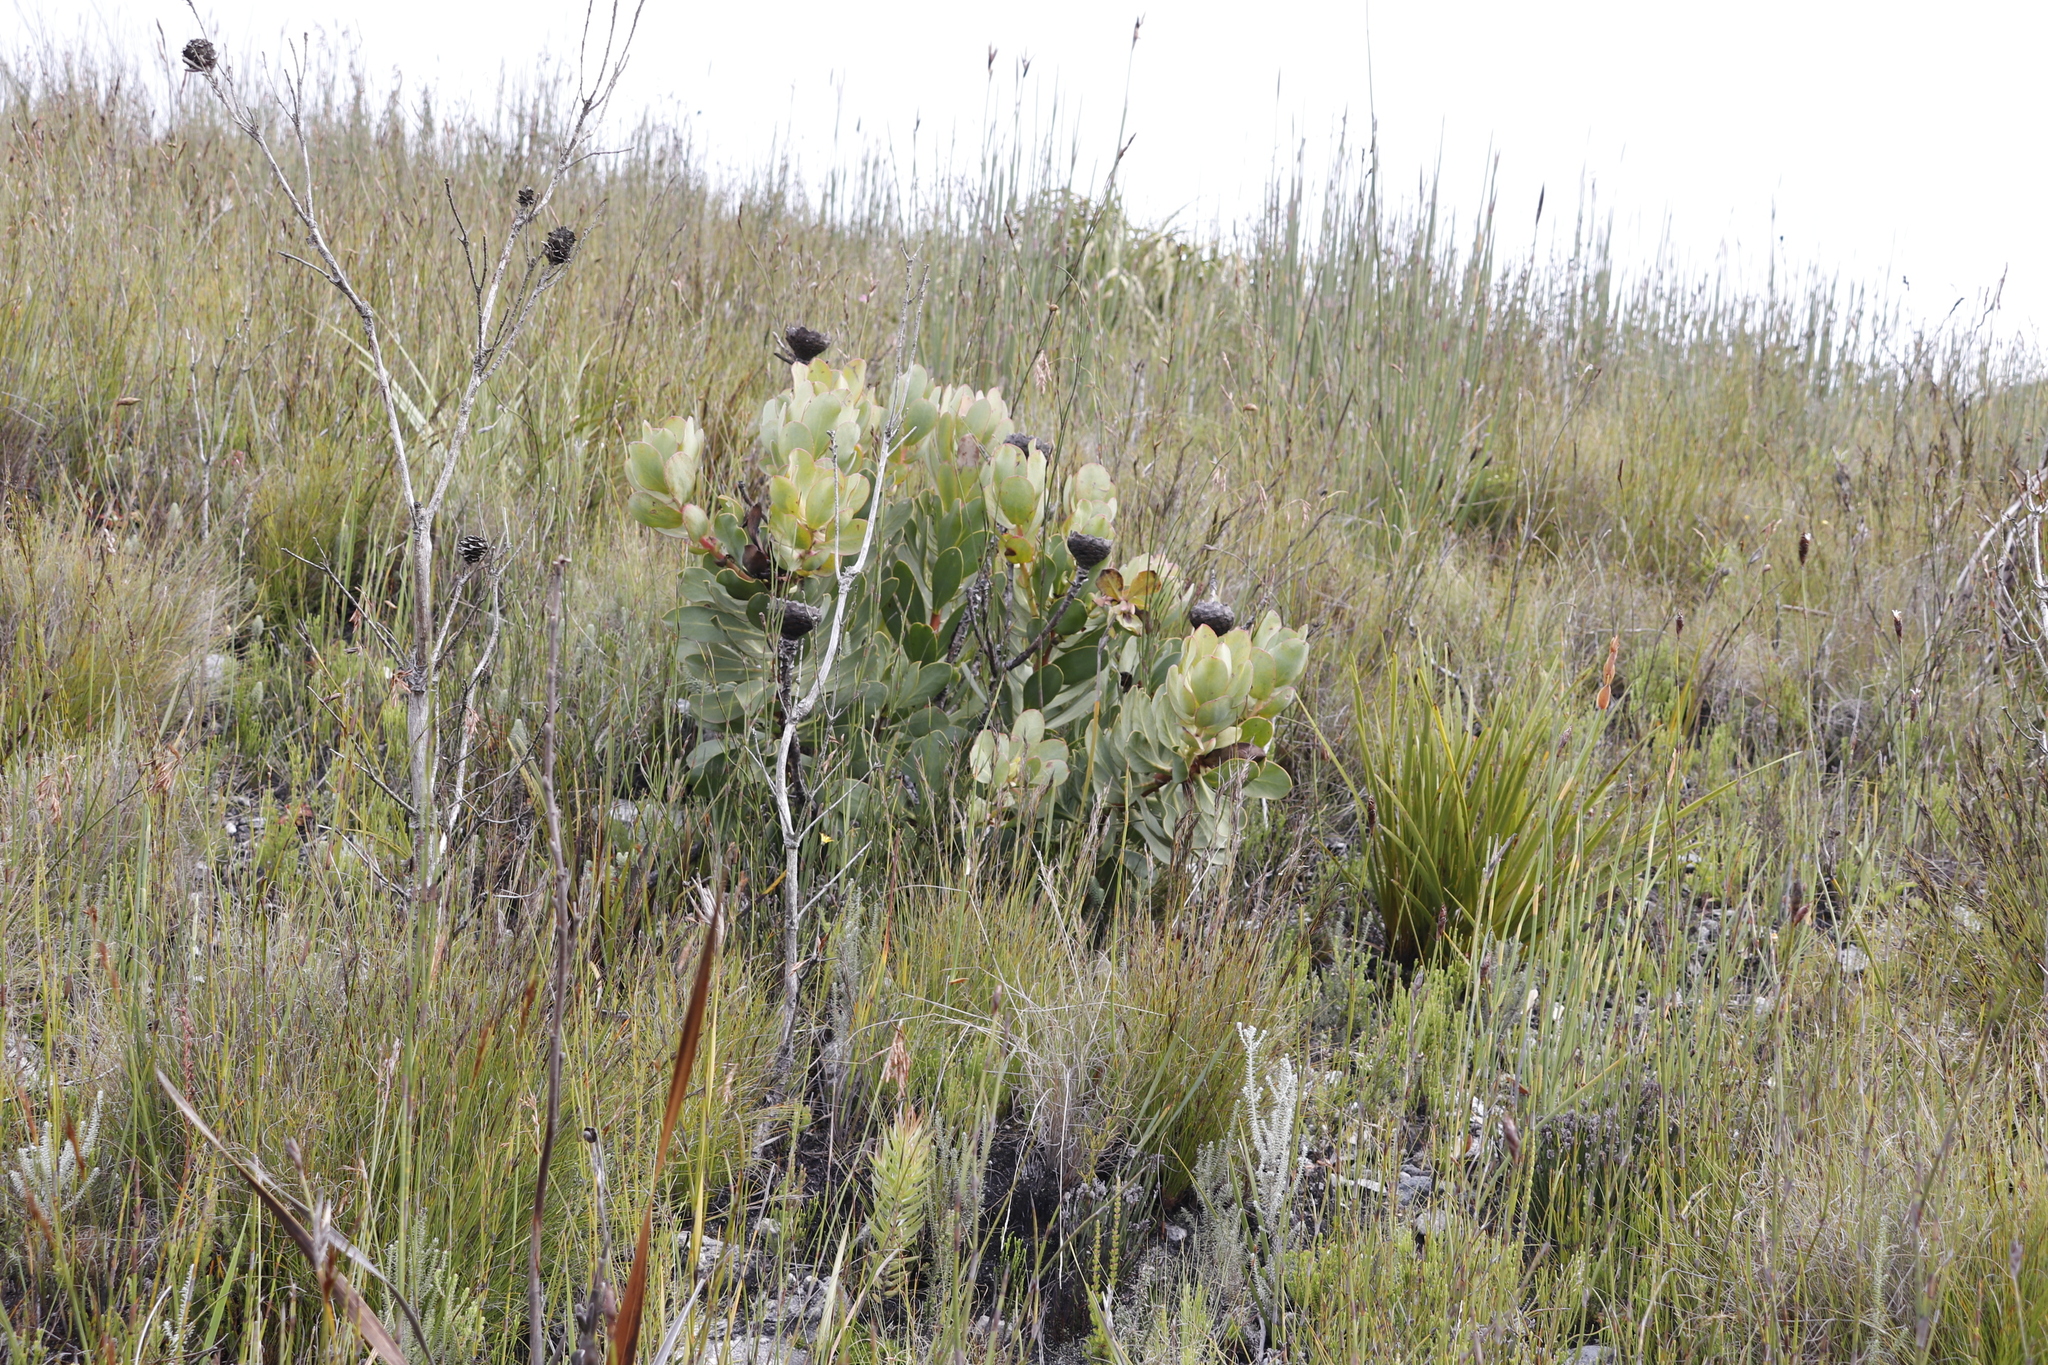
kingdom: Plantae
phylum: Tracheophyta
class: Magnoliopsida
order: Proteales
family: Proteaceae
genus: Protea
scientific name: Protea speciosa
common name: Brown-beard sugarbush
